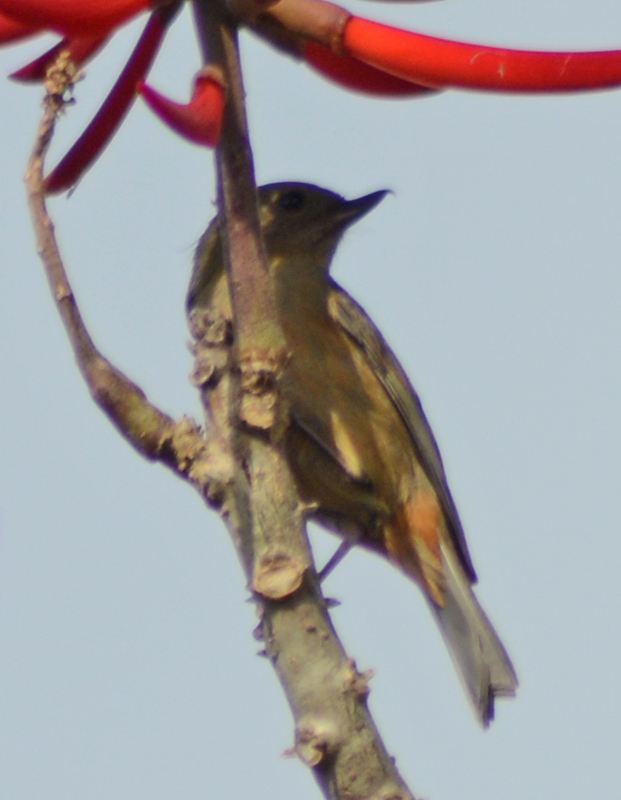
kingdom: Animalia
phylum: Chordata
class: Aves
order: Passeriformes
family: Thraupidae
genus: Diglossa
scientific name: Diglossa baritula
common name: Cinnamon-bellied flowerpiercer
